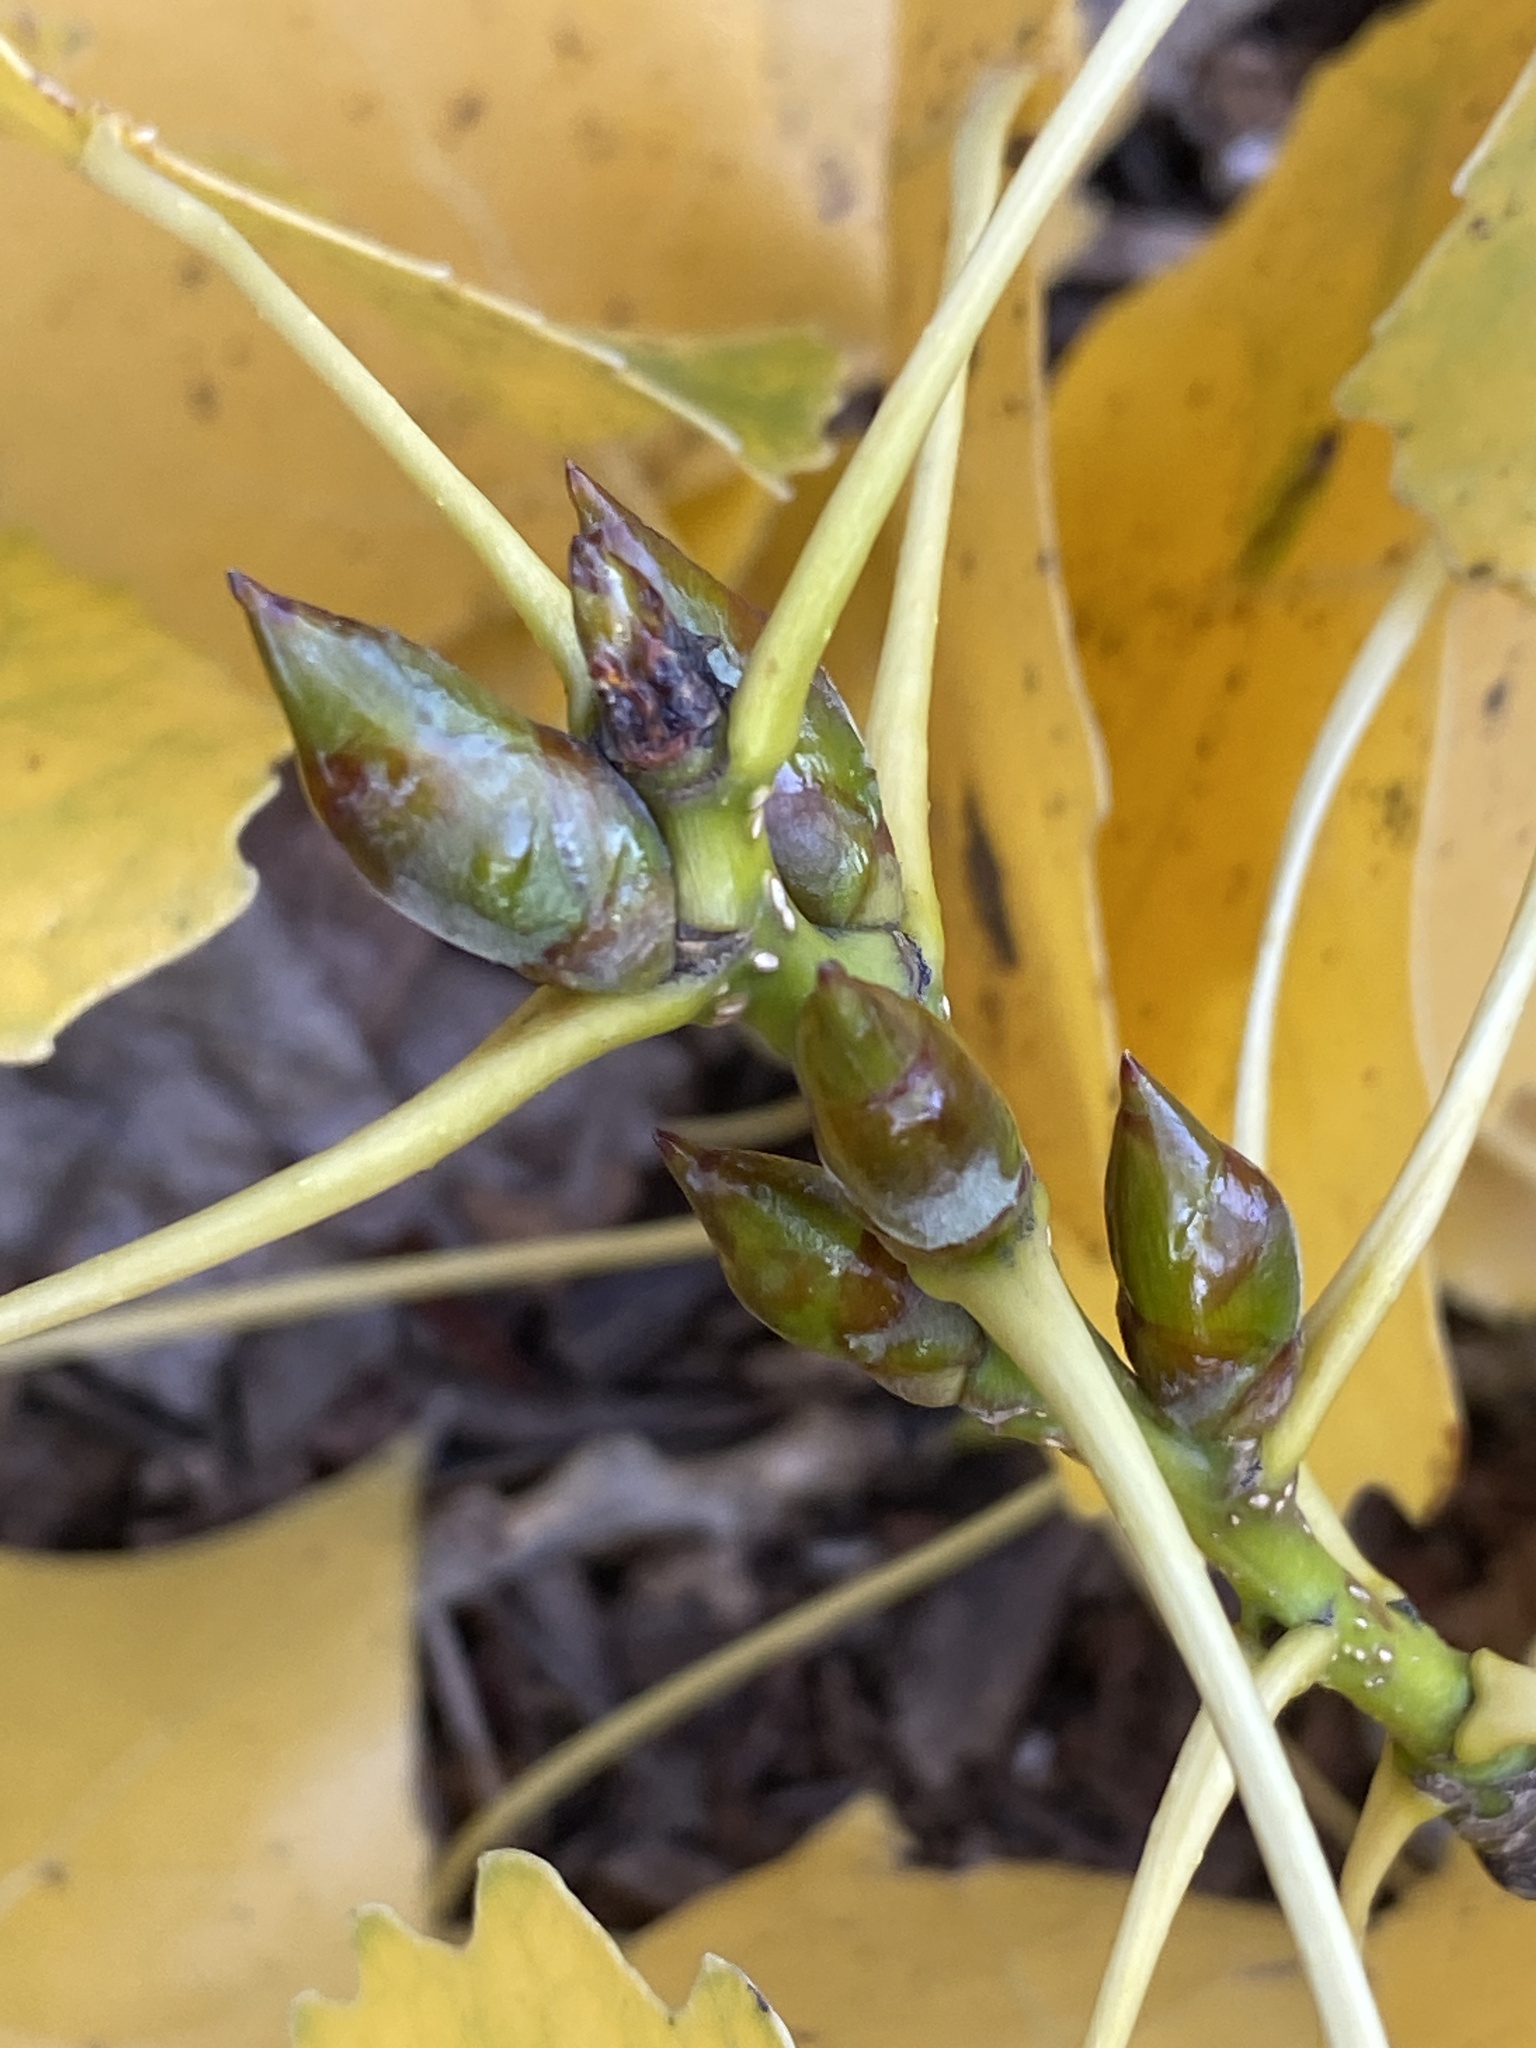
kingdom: Plantae
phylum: Tracheophyta
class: Magnoliopsida
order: Malpighiales
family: Salicaceae
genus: Populus
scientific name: Populus deltoides
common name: Eastern cottonwood
